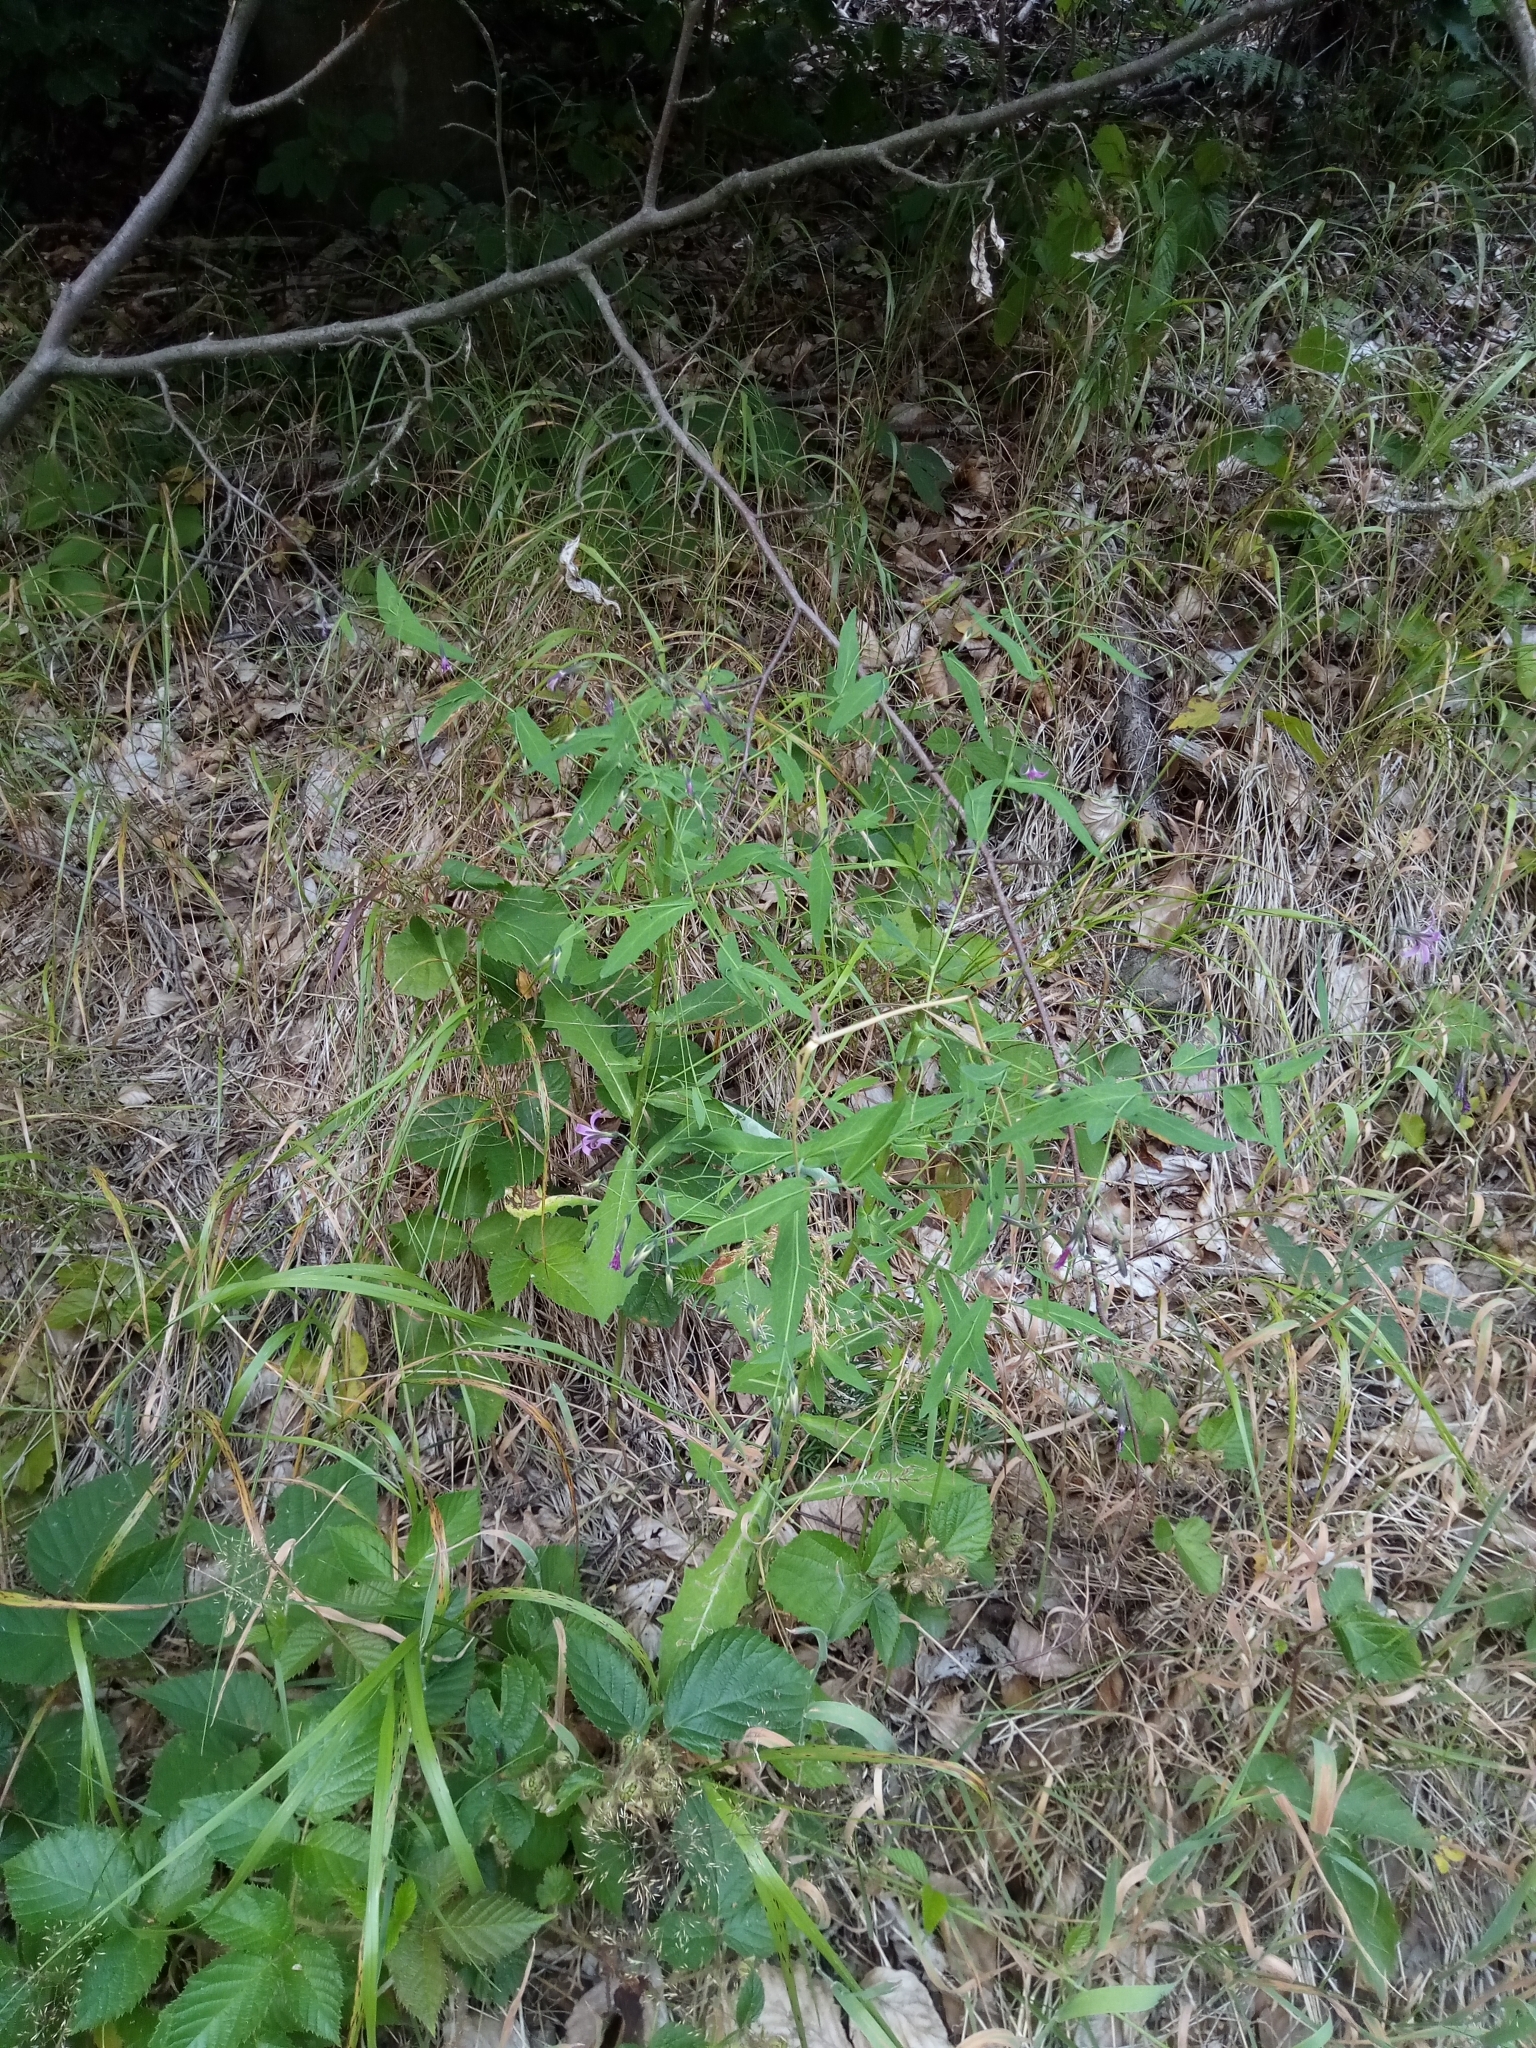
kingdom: Plantae
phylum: Tracheophyta
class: Magnoliopsida
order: Asterales
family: Asteraceae
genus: Prenanthes
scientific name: Prenanthes purpurea
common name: Purple lettuce
